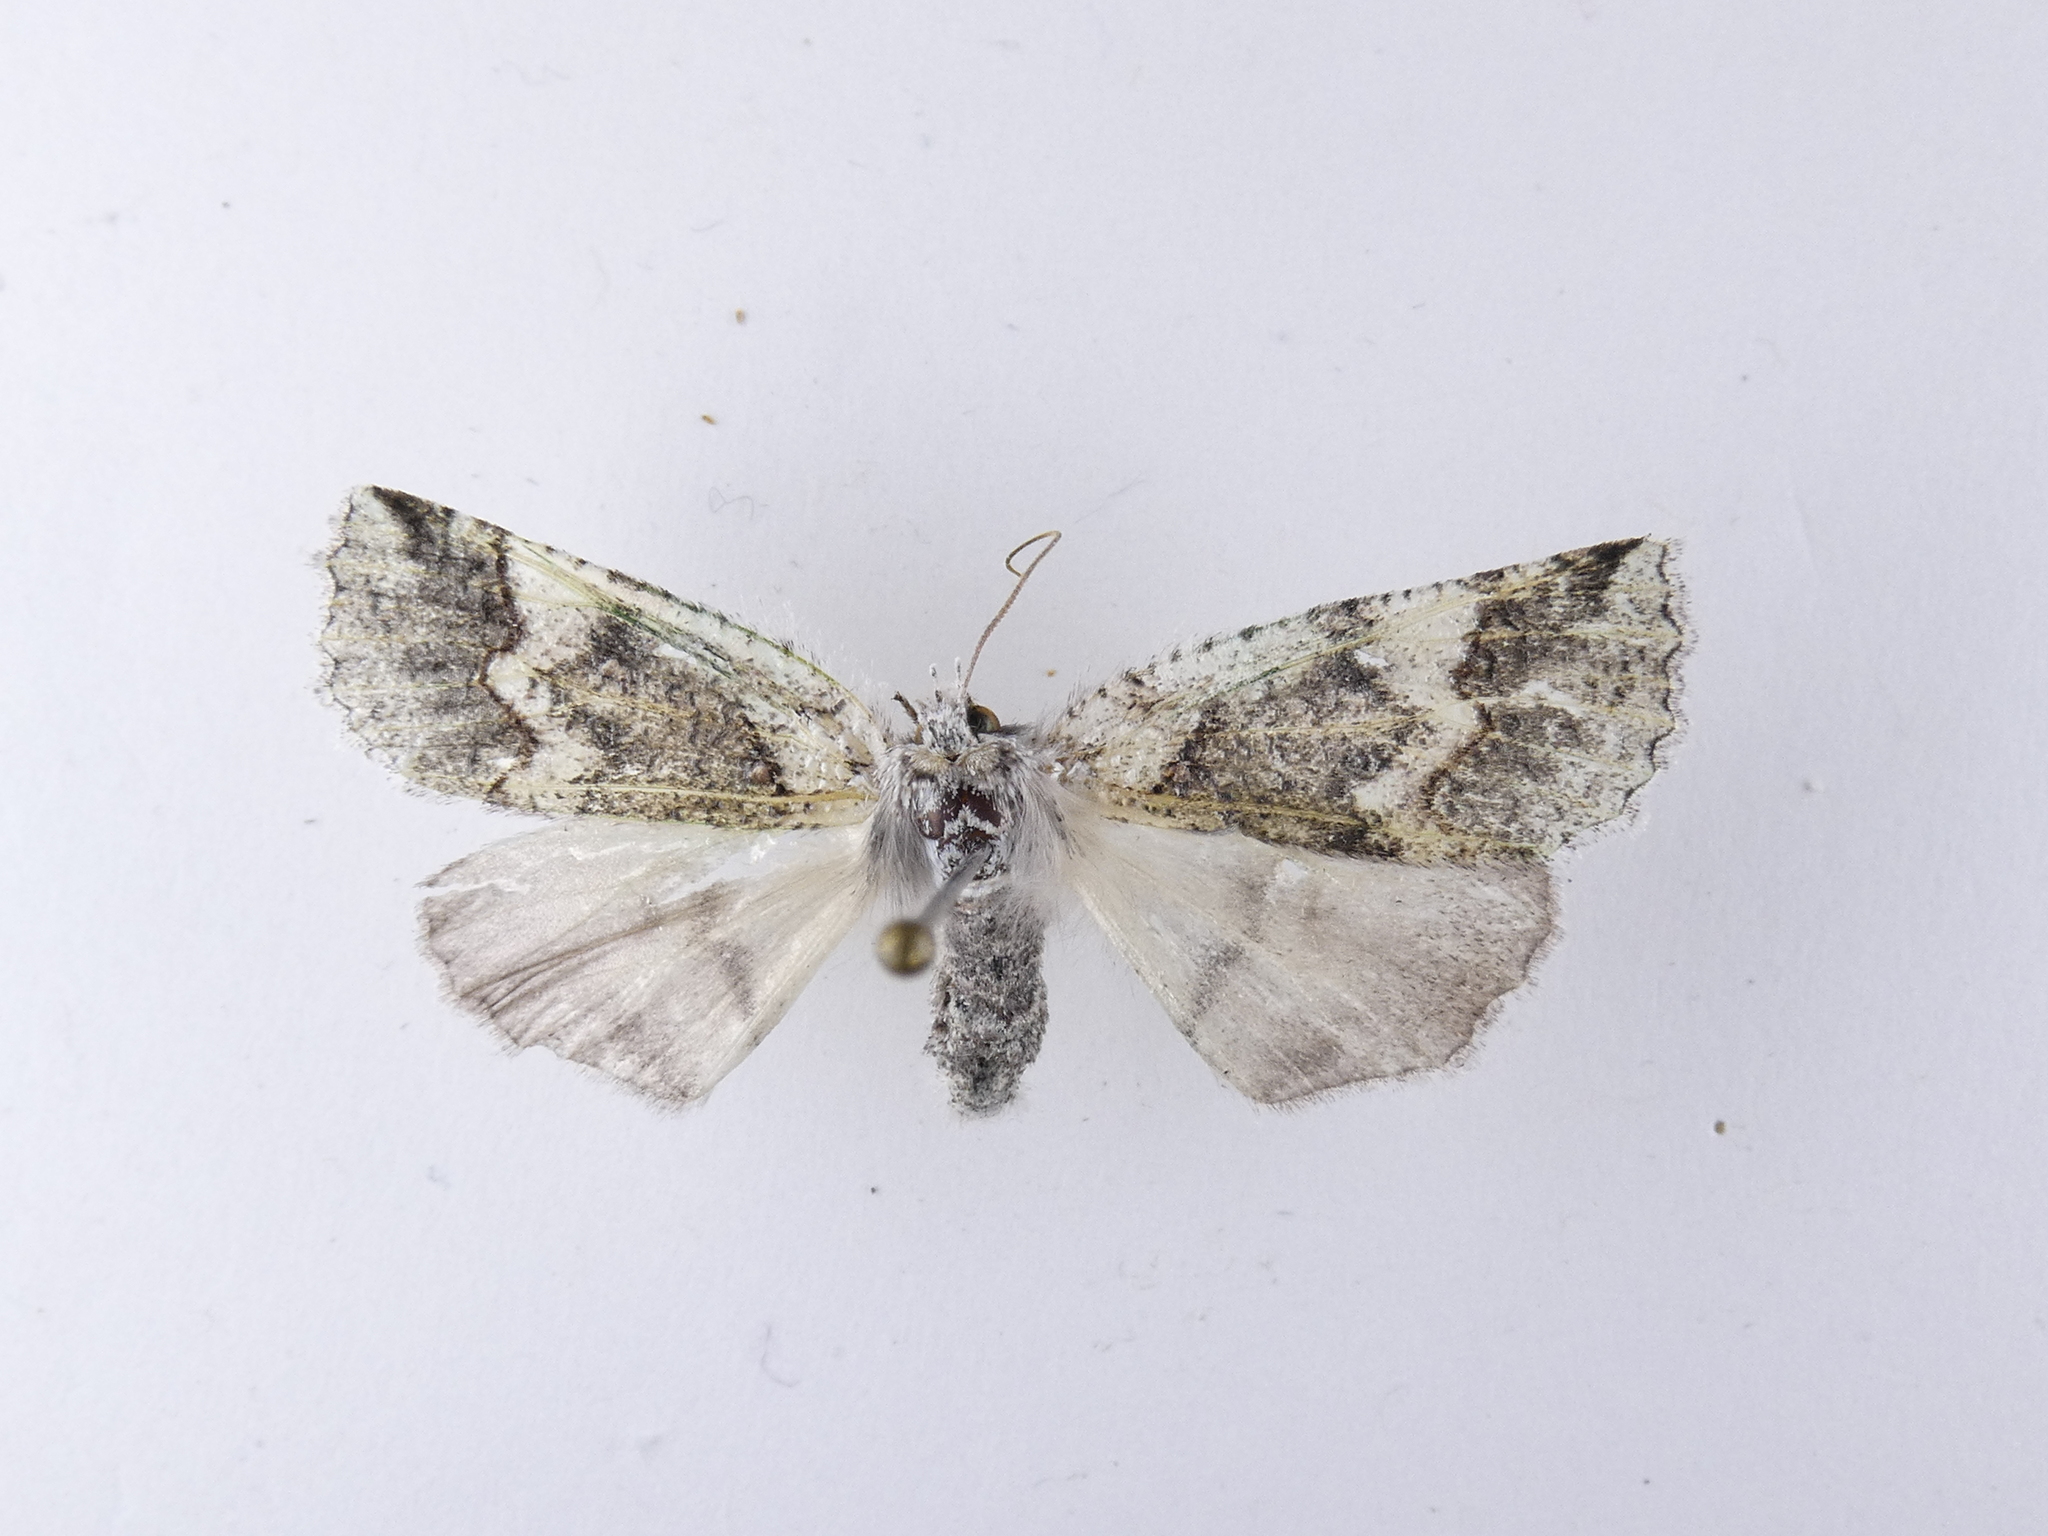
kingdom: Animalia
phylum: Arthropoda
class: Insecta
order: Lepidoptera
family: Geometridae
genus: Declana
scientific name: Declana floccosa
